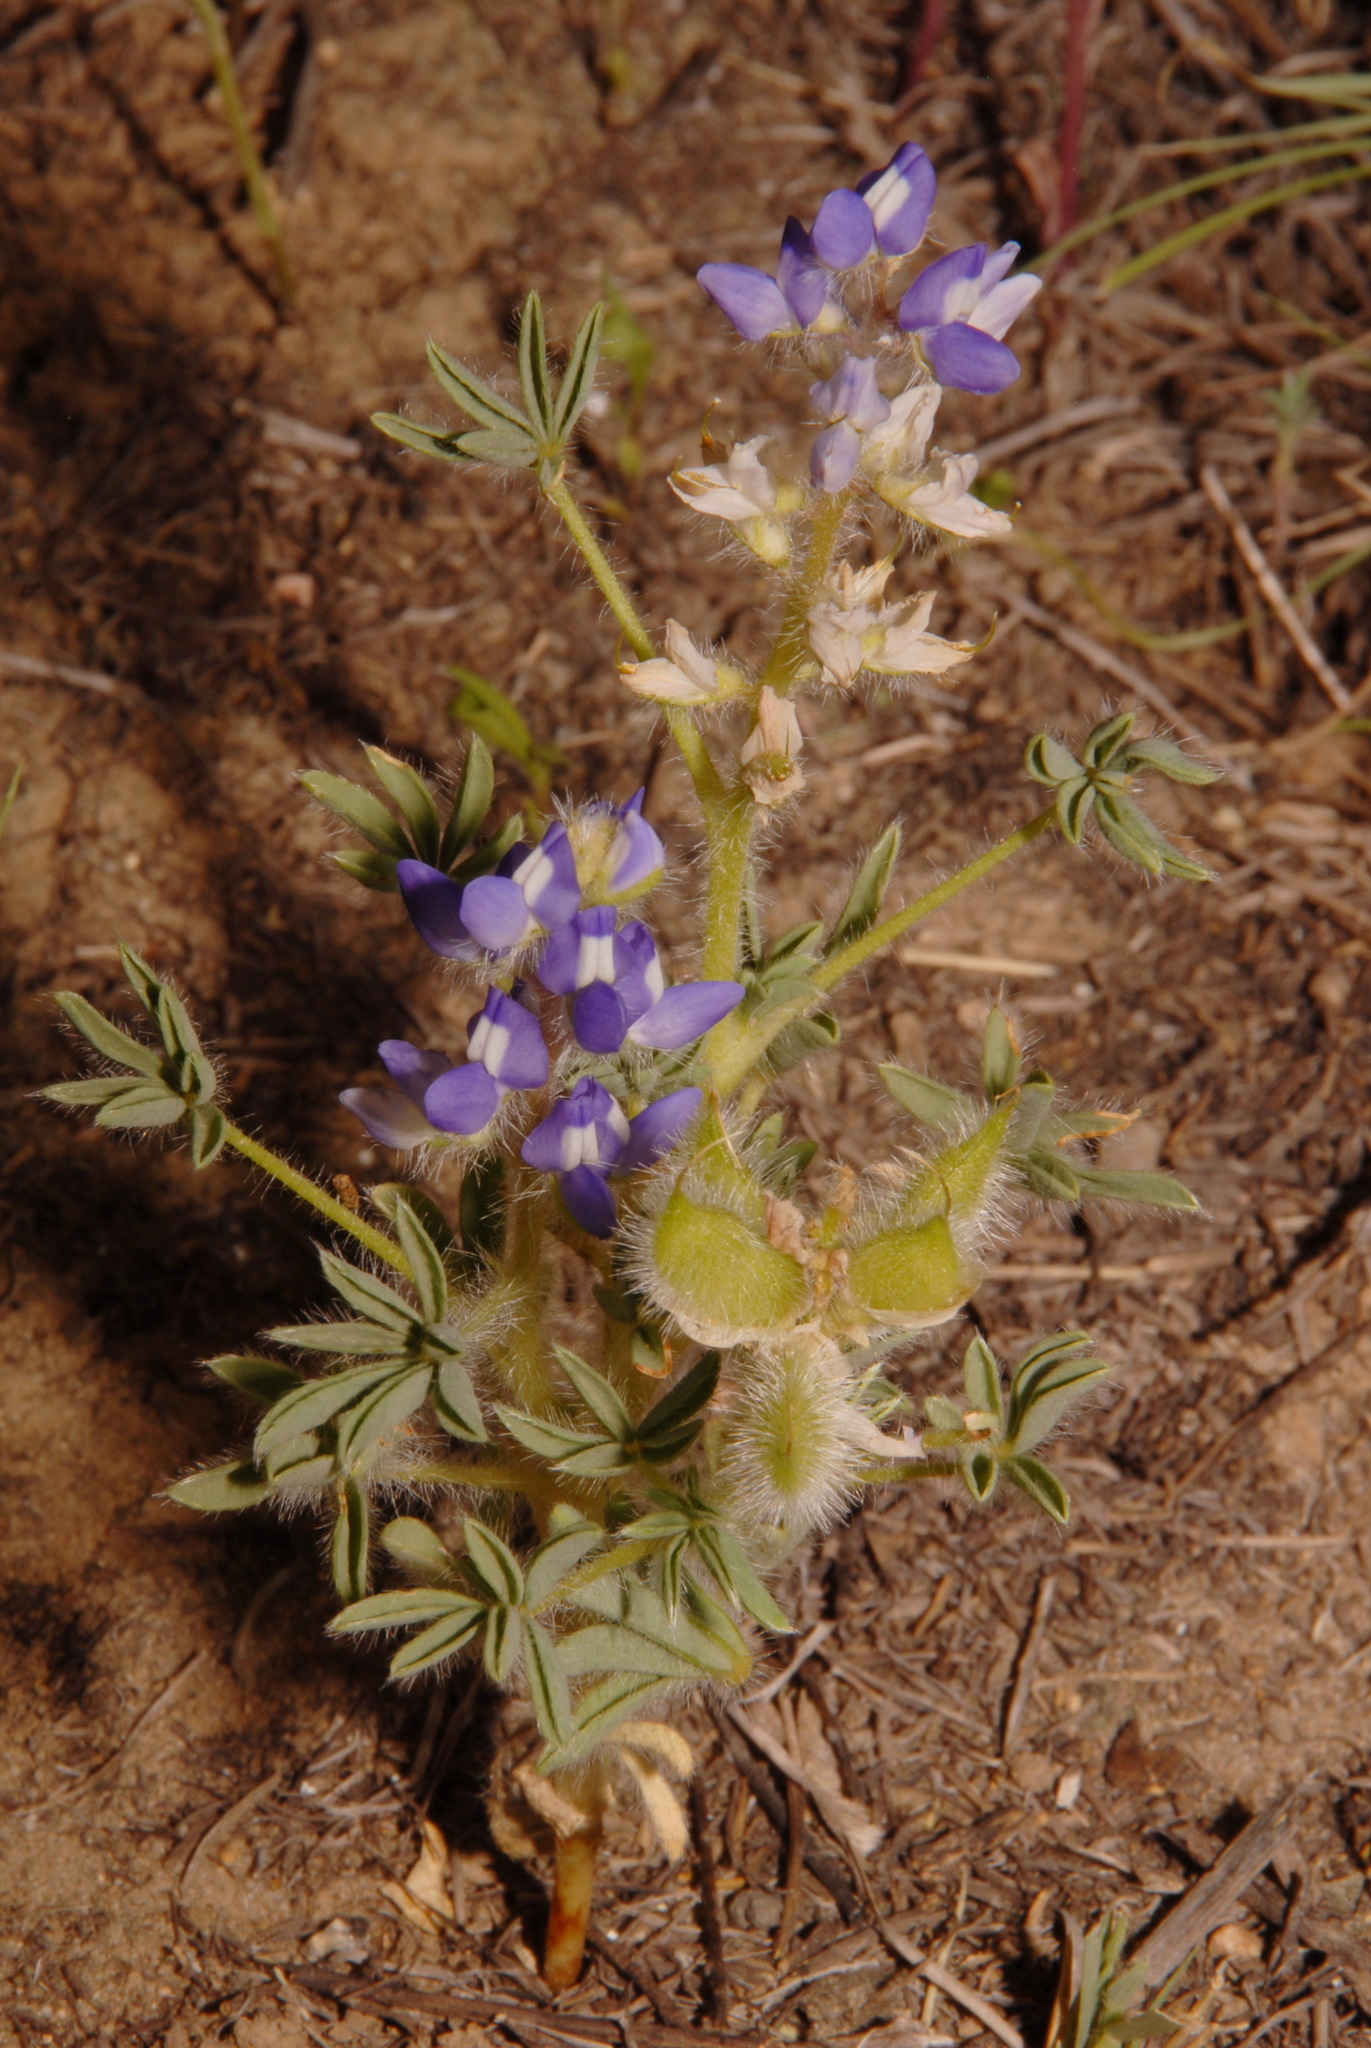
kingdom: Plantae
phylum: Tracheophyta
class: Magnoliopsida
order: Fabales
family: Fabaceae
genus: Lupinus
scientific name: Lupinus pusillus
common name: Low lupine
